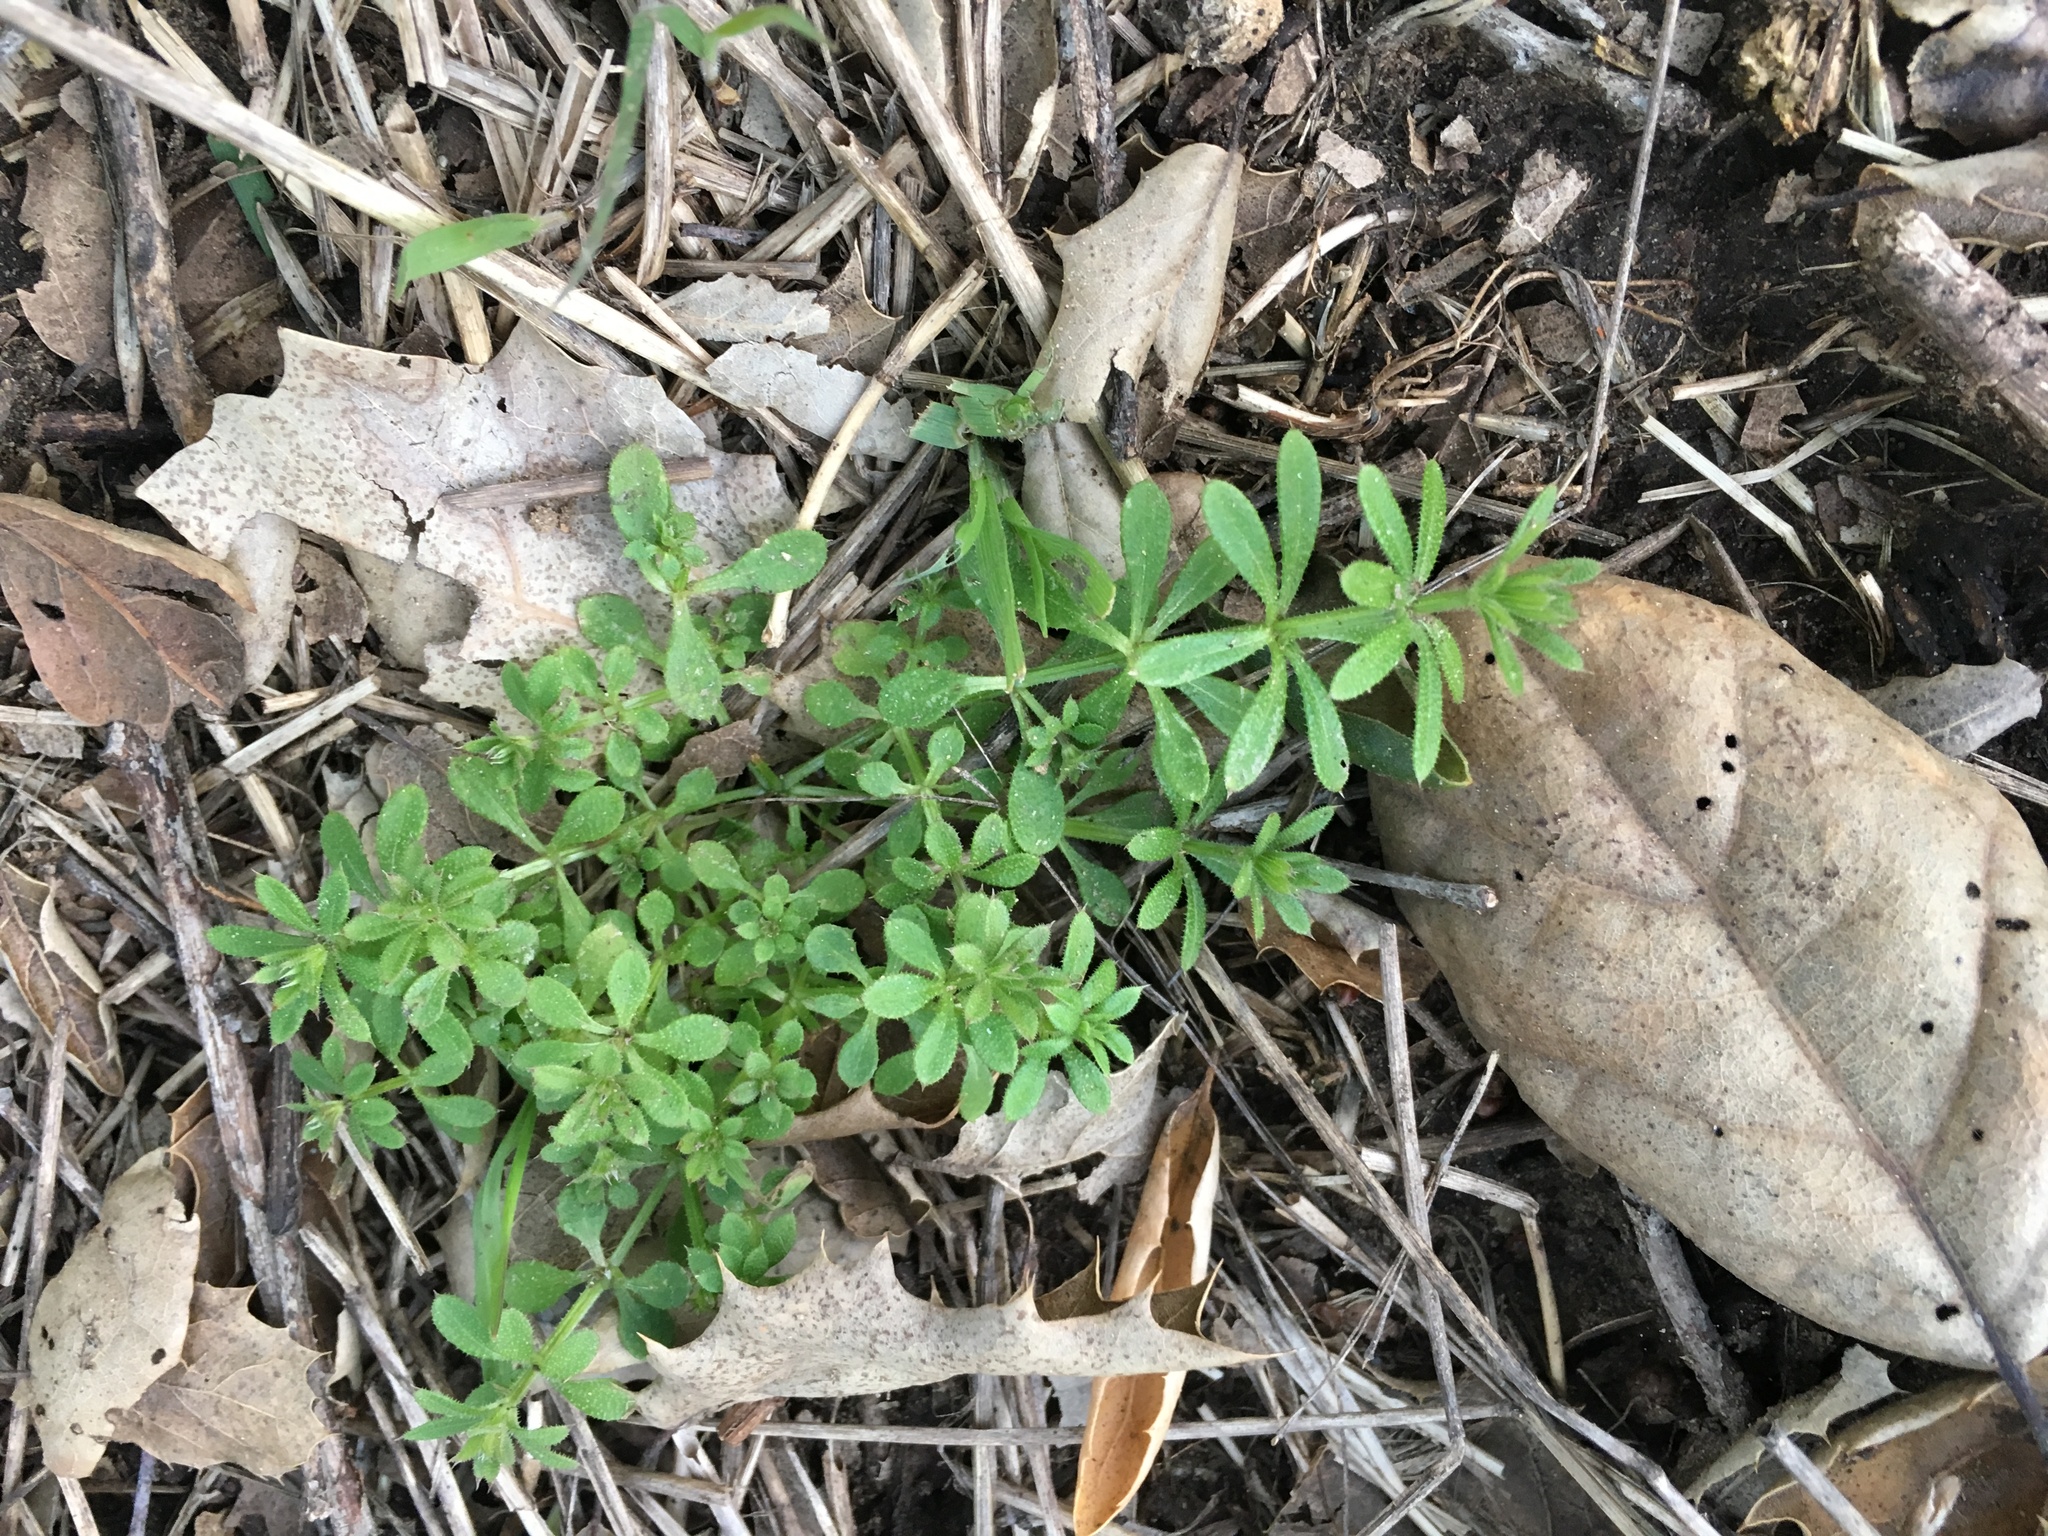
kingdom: Plantae
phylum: Tracheophyta
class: Magnoliopsida
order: Gentianales
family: Rubiaceae
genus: Galium
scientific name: Galium aparine
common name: Cleavers
